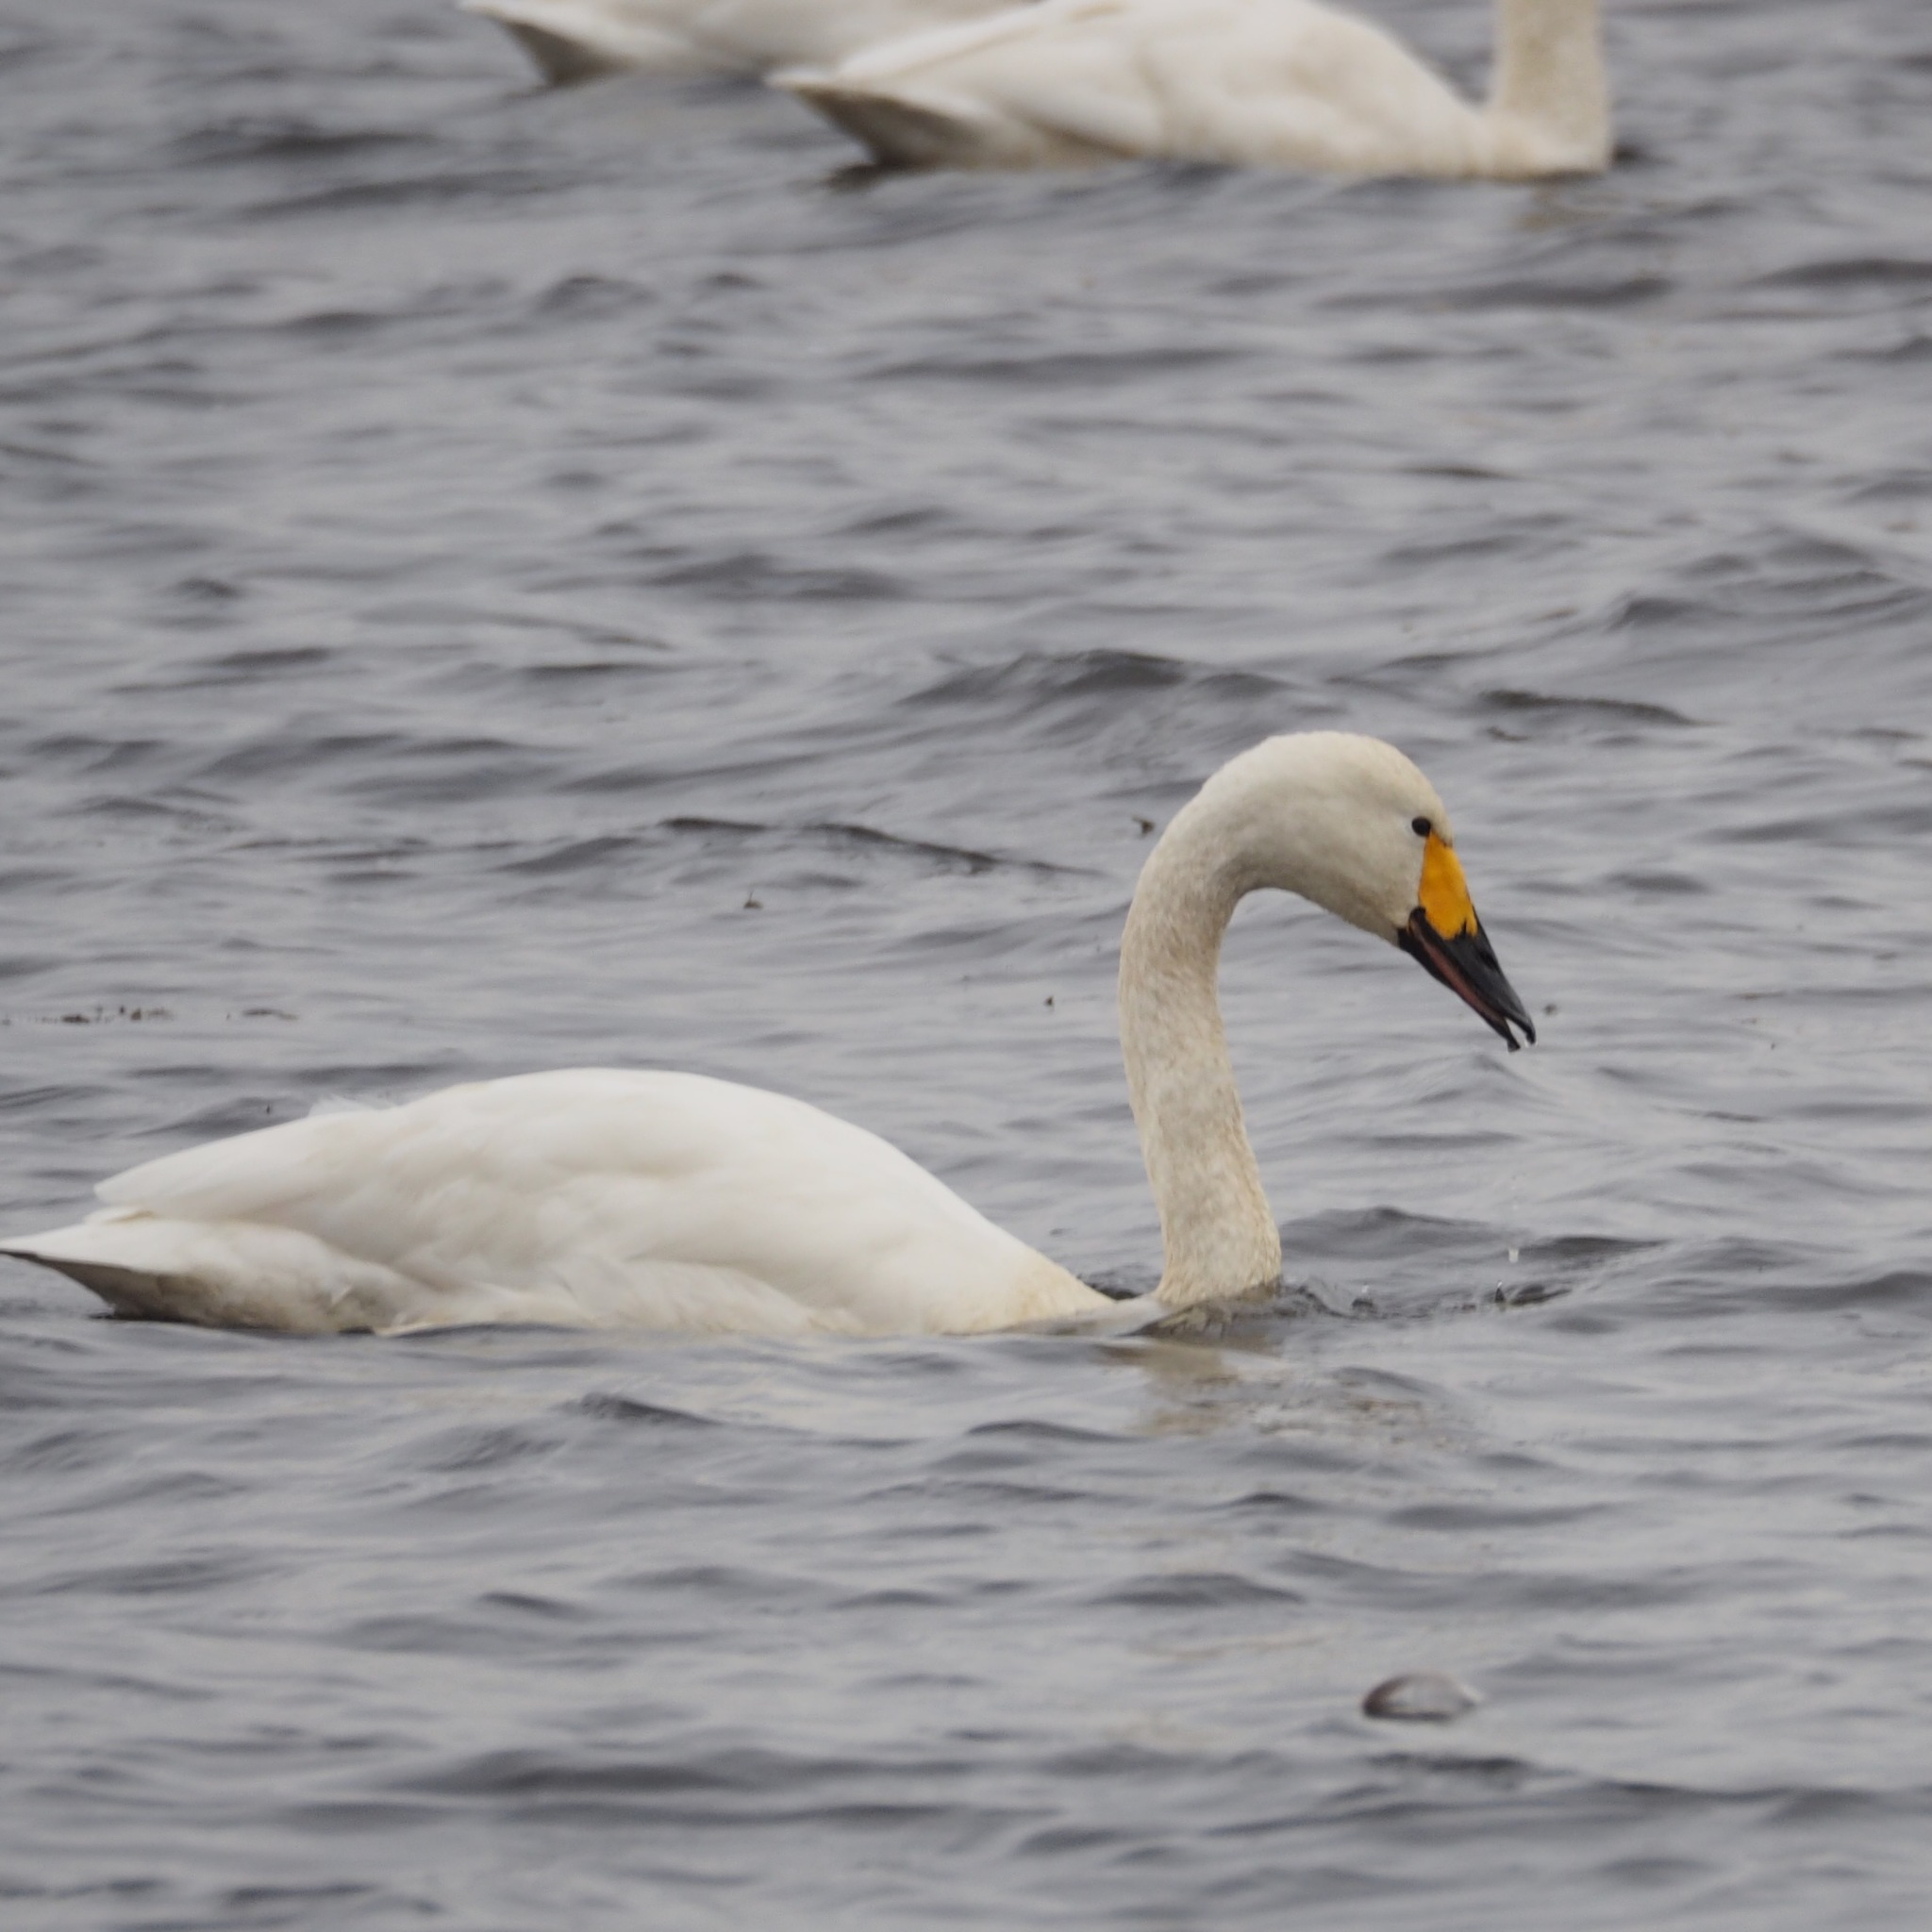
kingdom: Animalia
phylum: Chordata
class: Aves
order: Anseriformes
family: Anatidae
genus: Cygnus
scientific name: Cygnus columbianus
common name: Tundra swan
